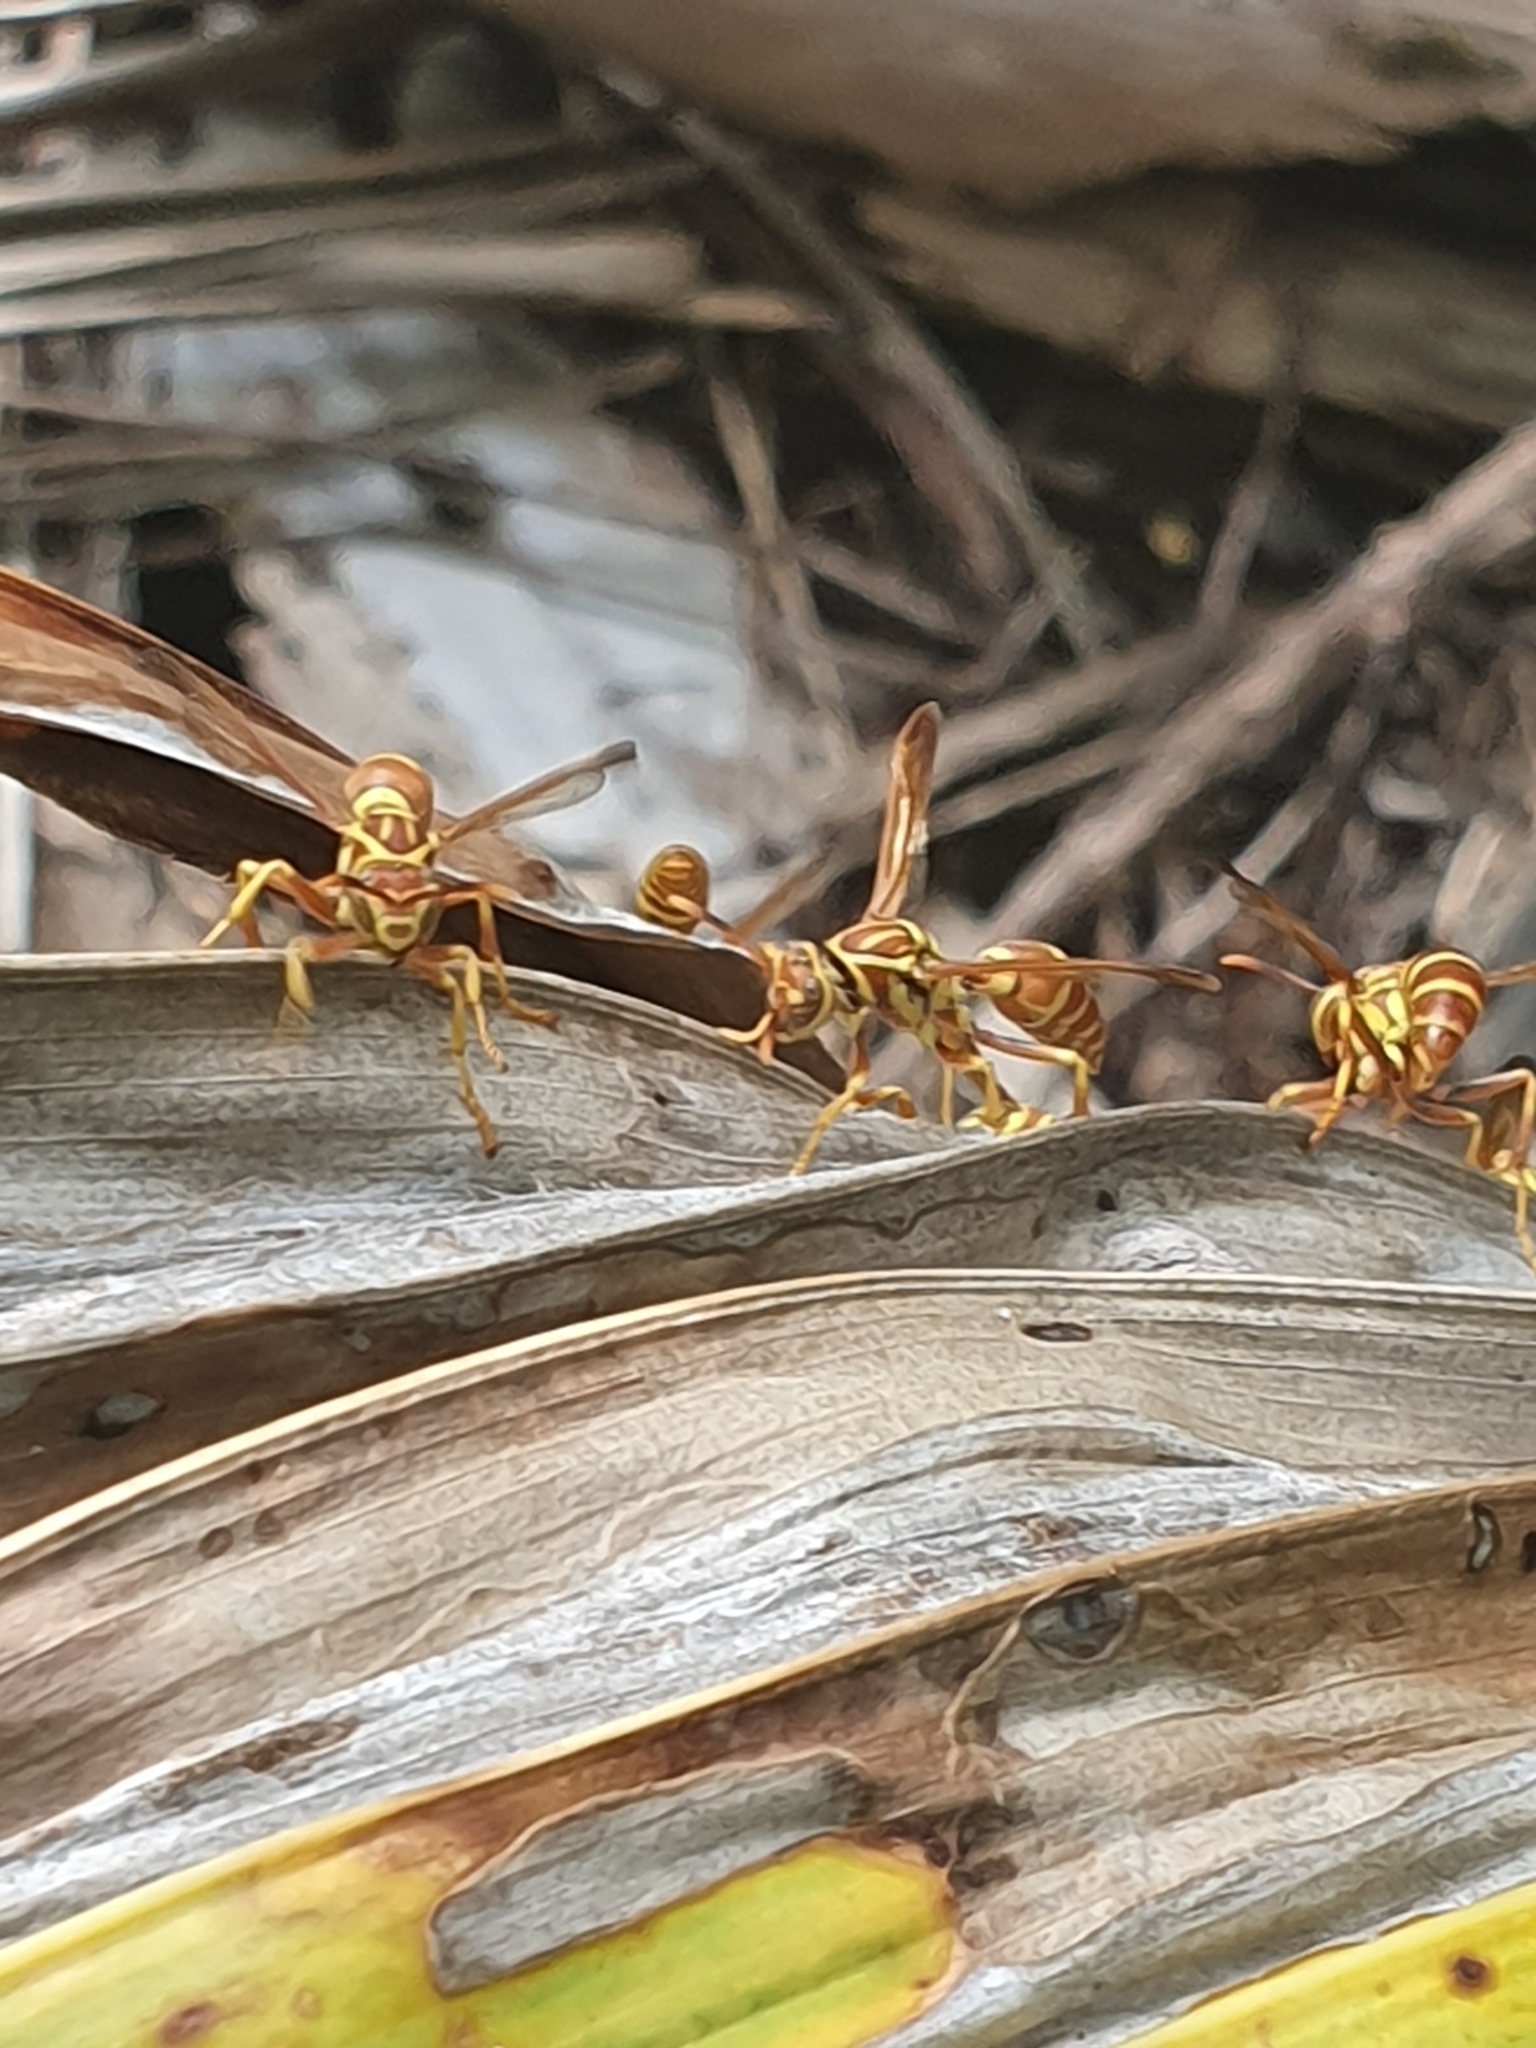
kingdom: Animalia
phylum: Arthropoda
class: Insecta
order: Hymenoptera
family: Eumenidae
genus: Polistes
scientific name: Polistes incertus
